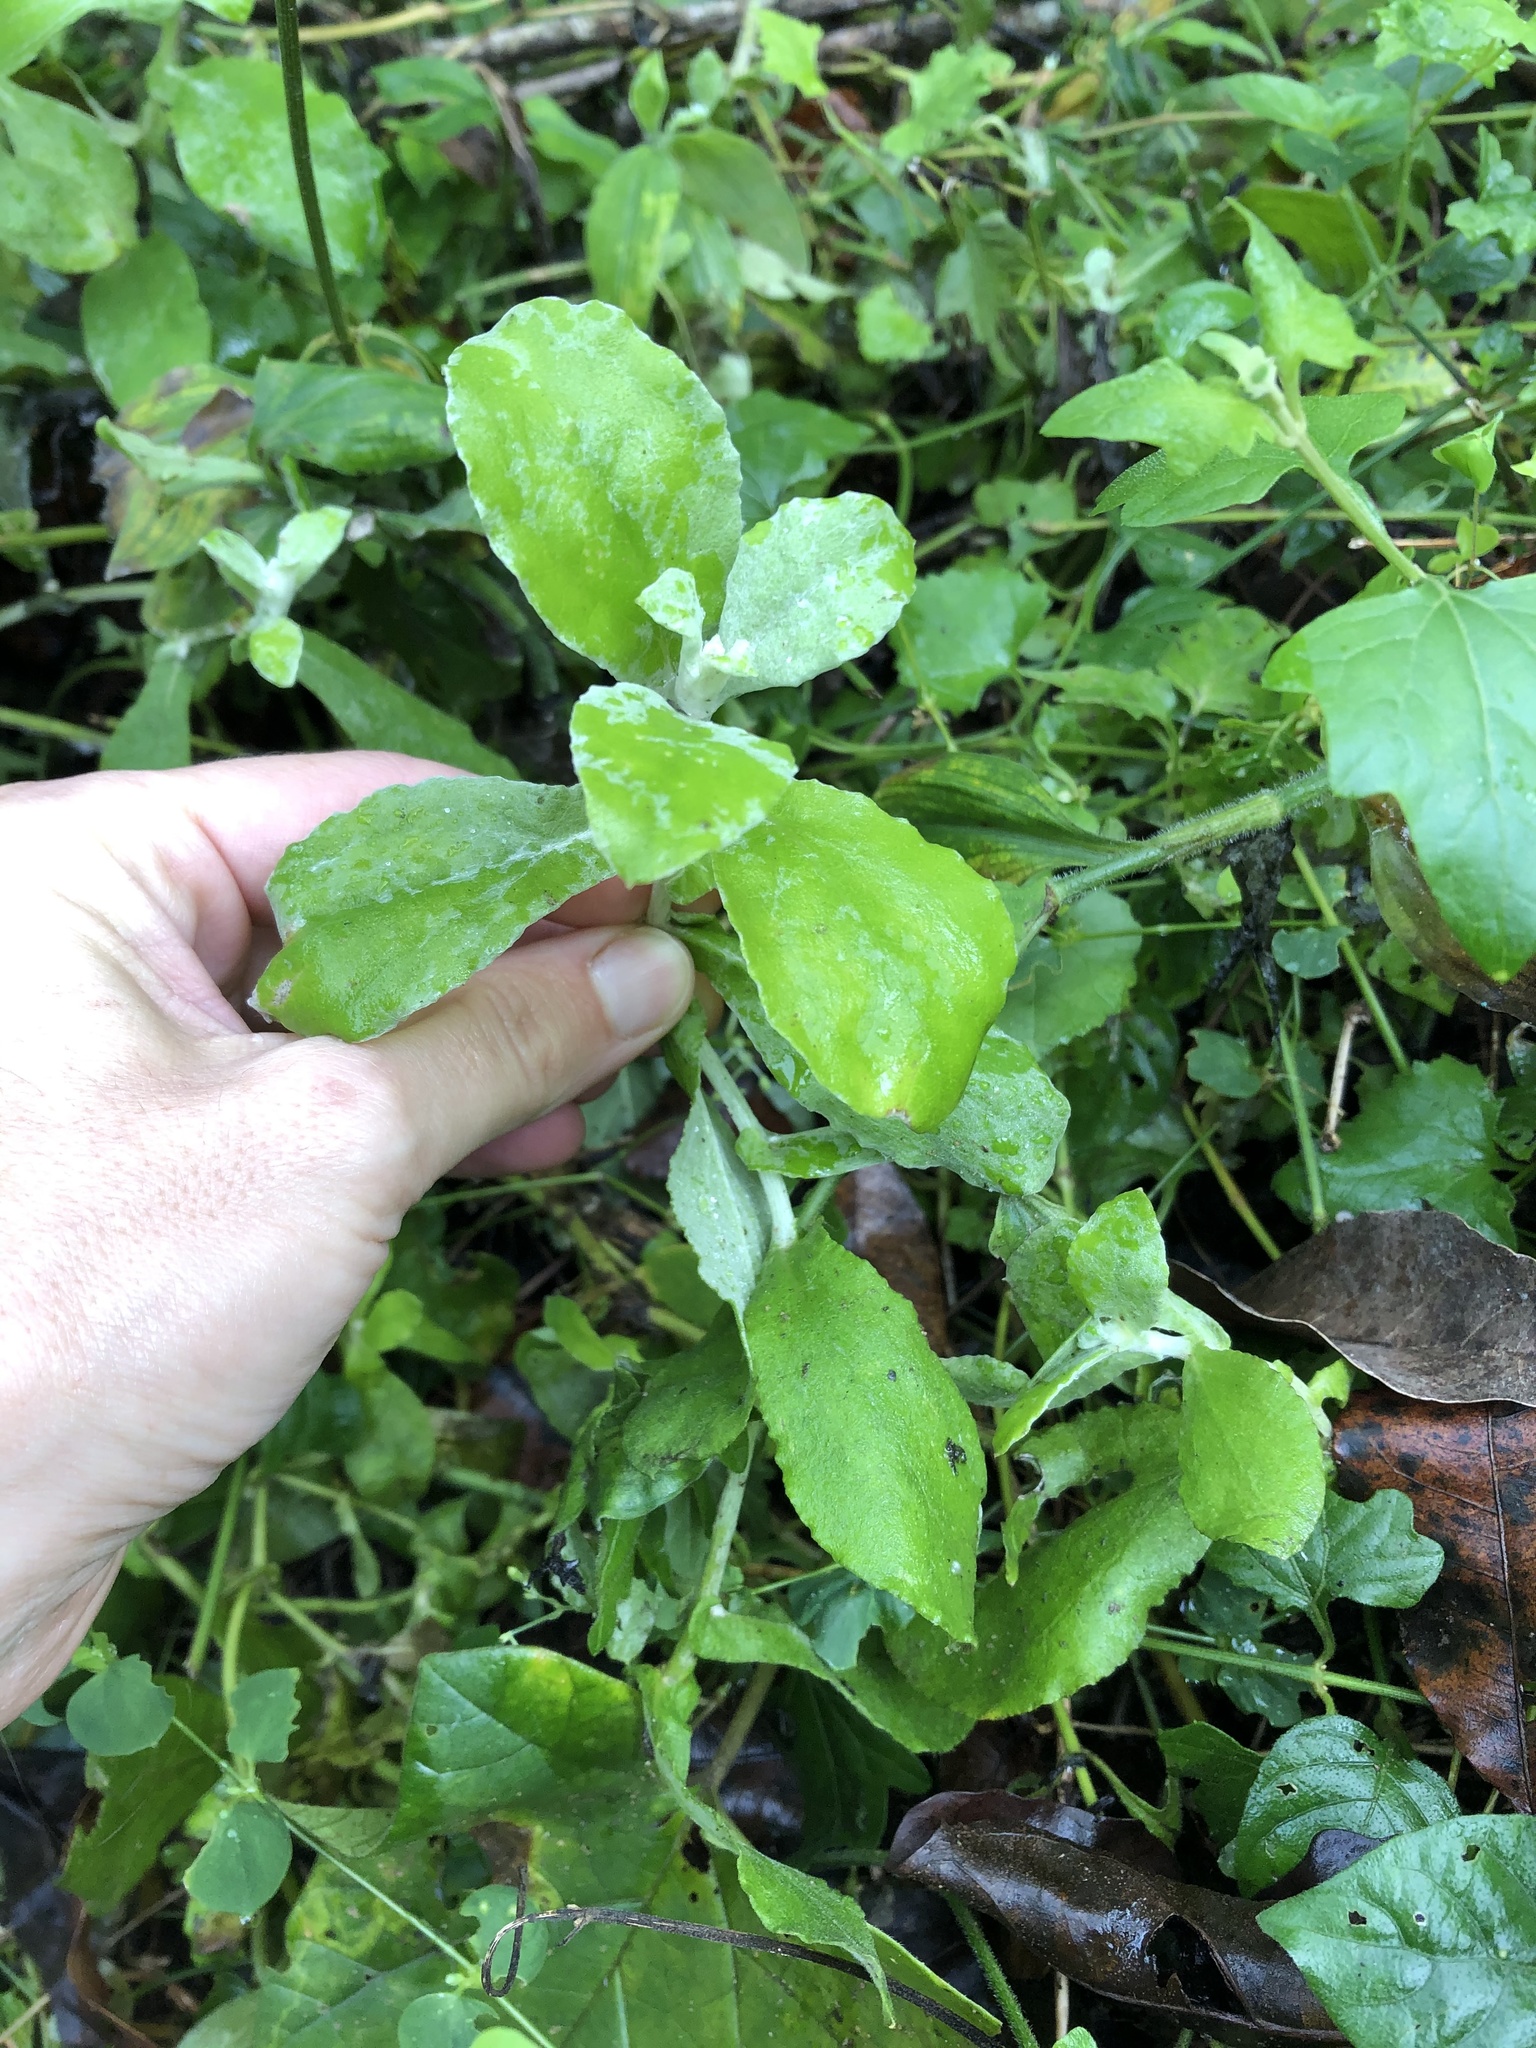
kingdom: Plantae
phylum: Tracheophyta
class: Magnoliopsida
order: Asterales
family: Asteraceae
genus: Helichrysum
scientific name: Helichrysum panduratum
